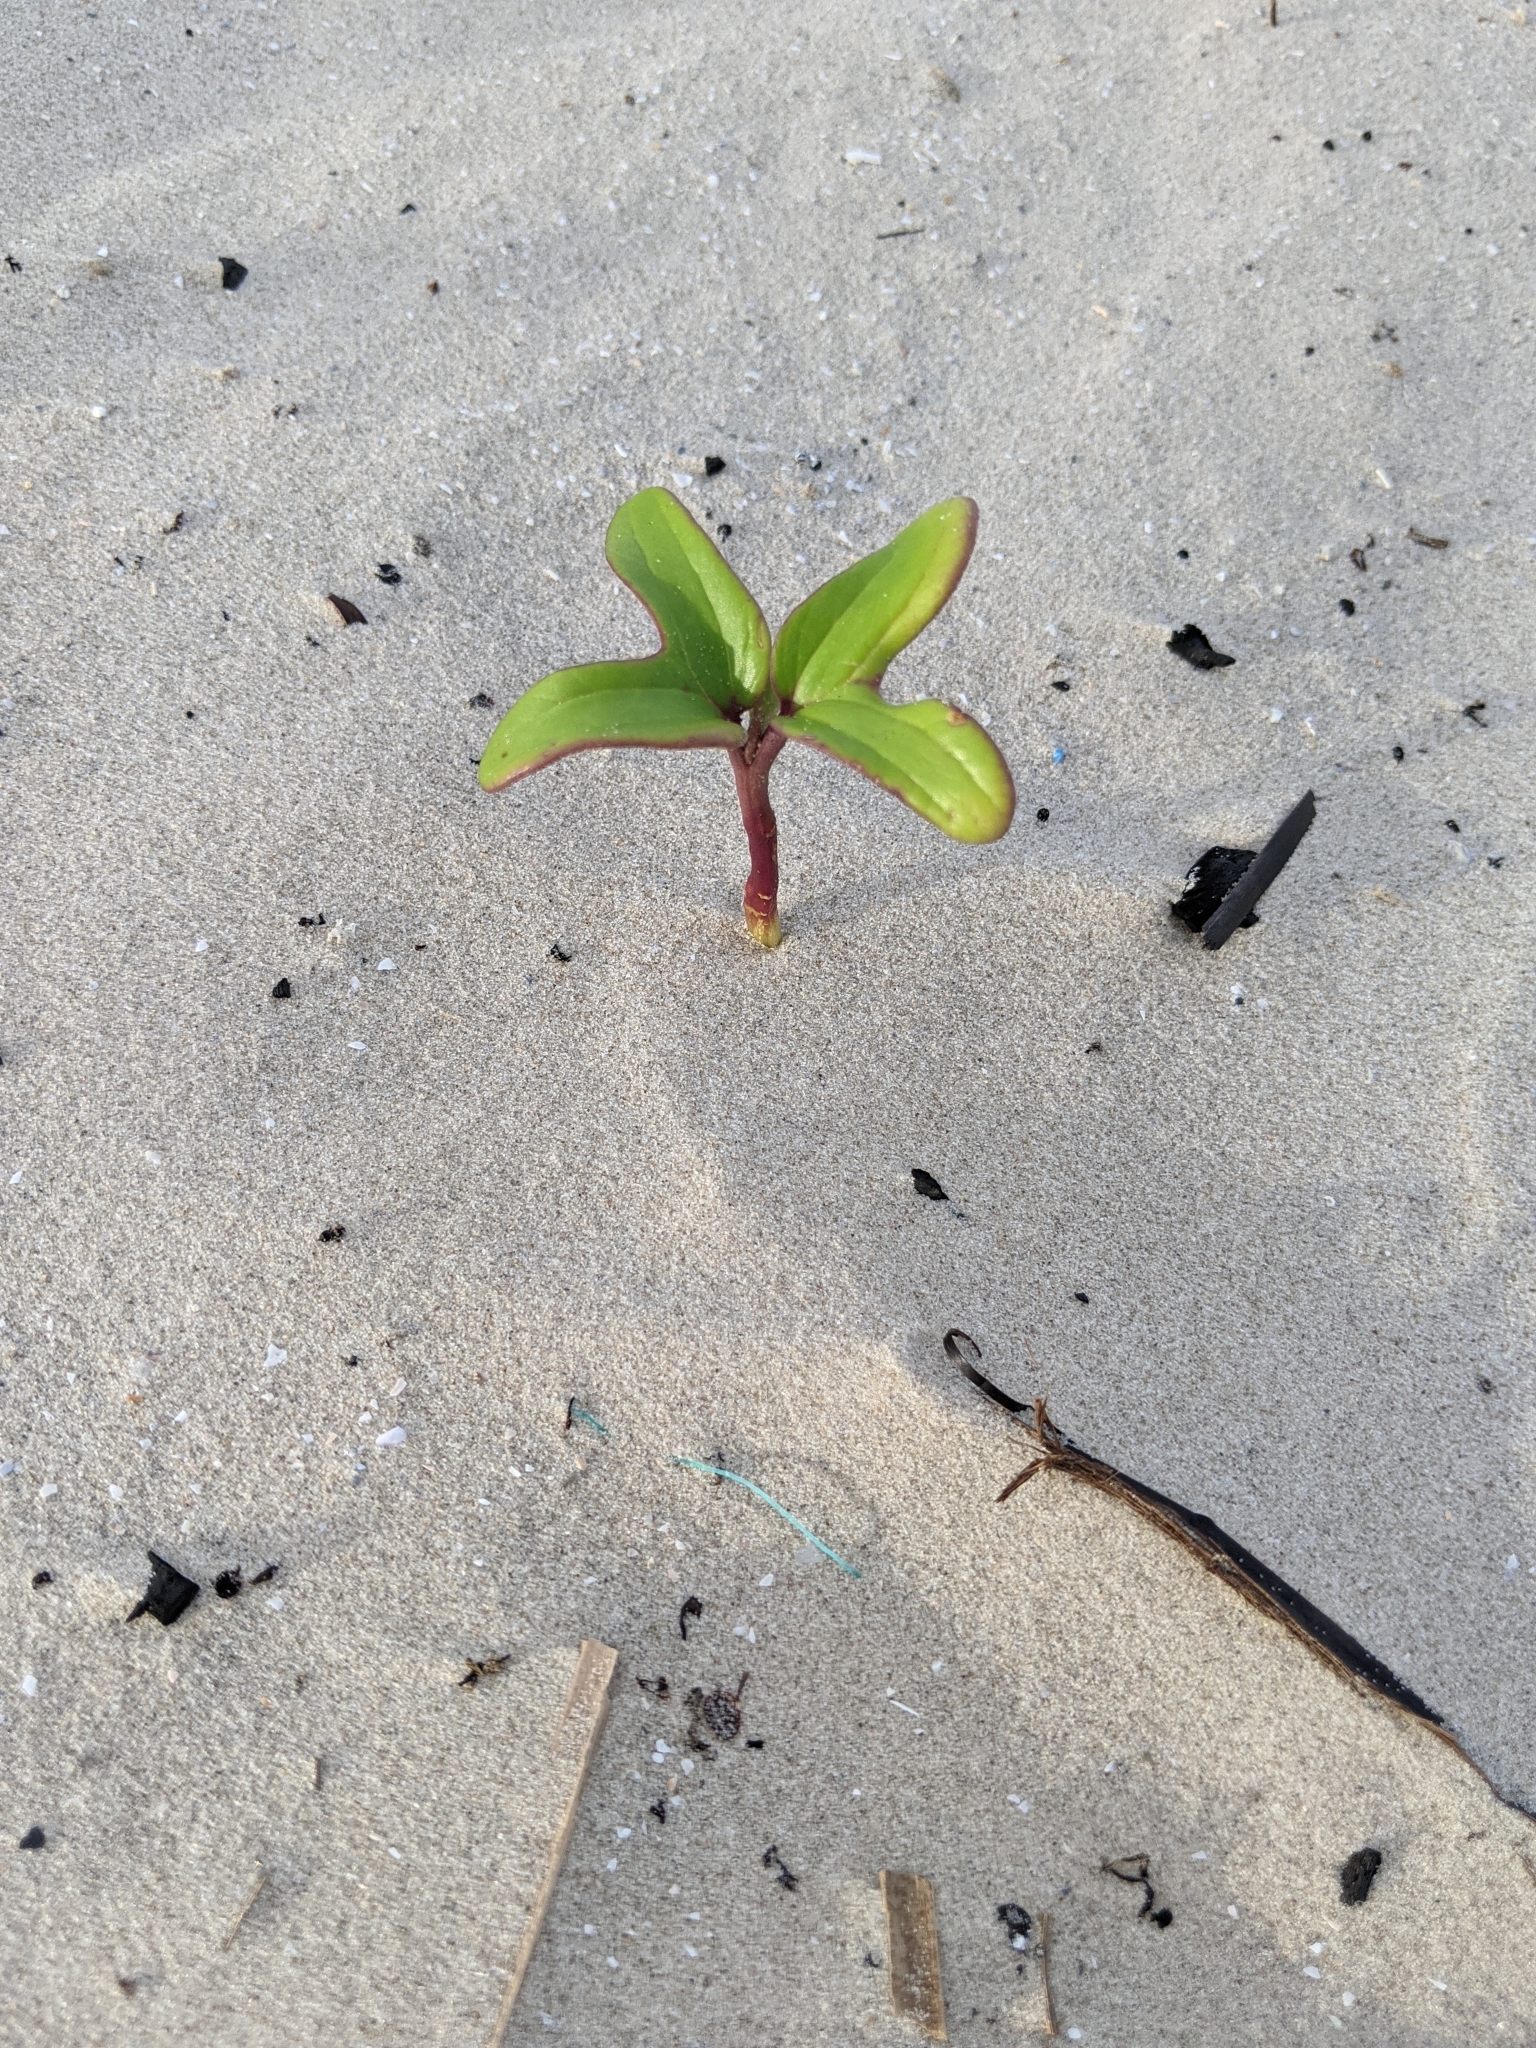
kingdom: Plantae
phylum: Tracheophyta
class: Magnoliopsida
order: Solanales
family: Convolvulaceae
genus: Ipomoea
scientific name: Ipomoea pes-caprae
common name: Beach morning glory
